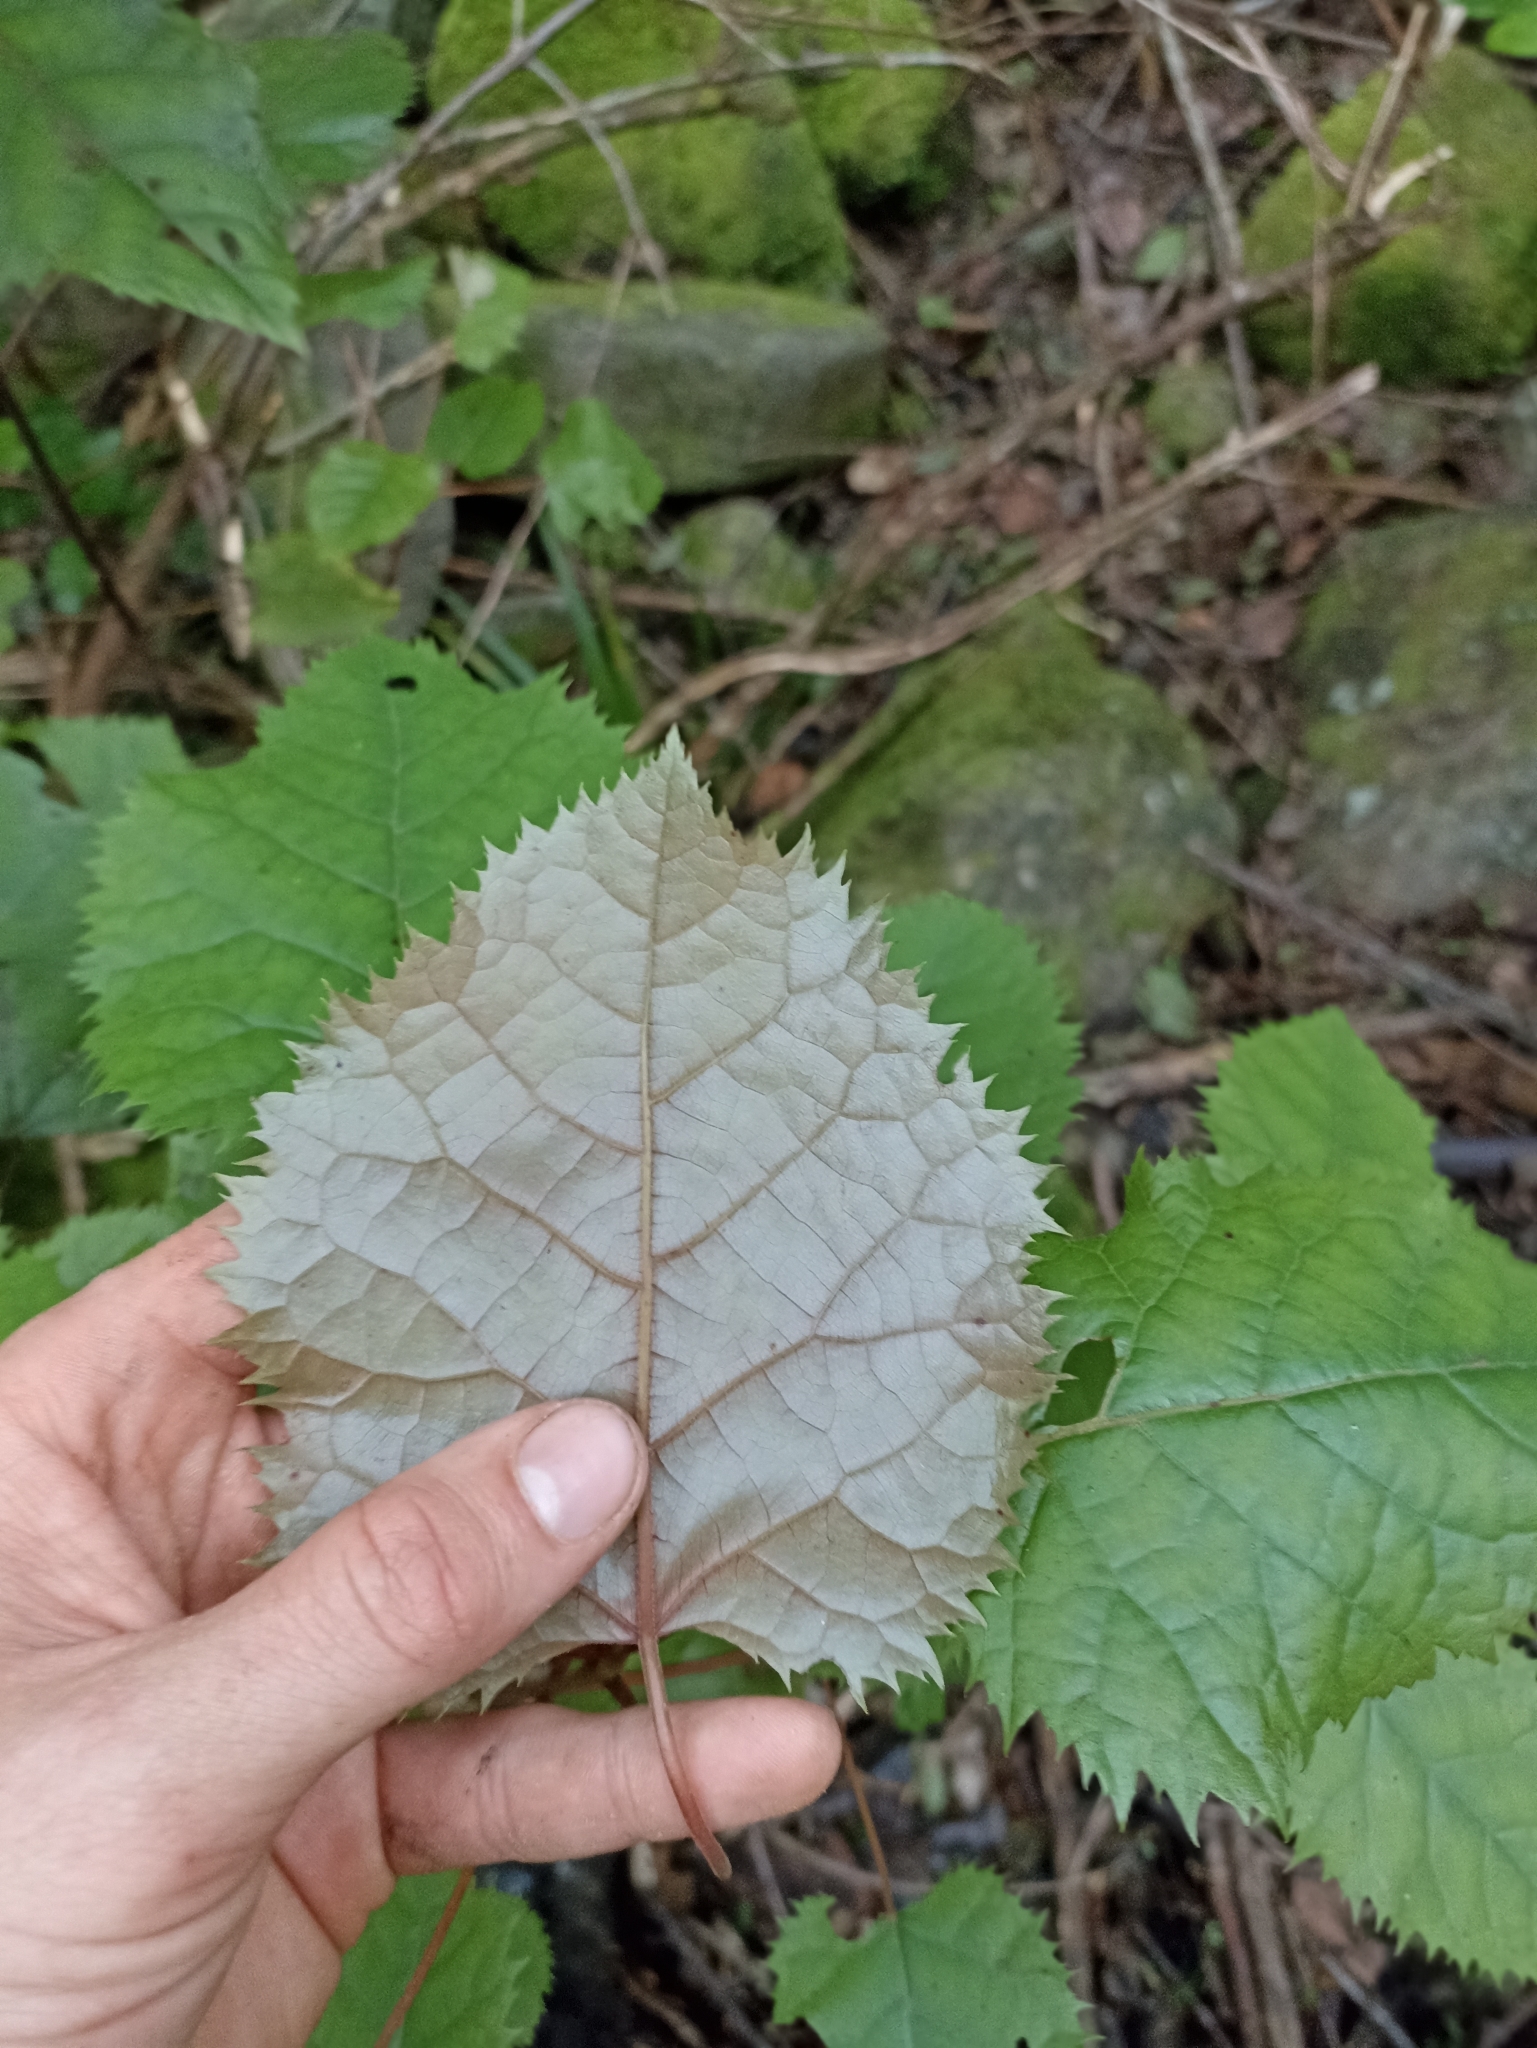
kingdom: Plantae
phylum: Tracheophyta
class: Magnoliopsida
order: Oxalidales
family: Elaeocarpaceae
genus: Aristotelia
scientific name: Aristotelia serrata
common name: New zealand wineberry
